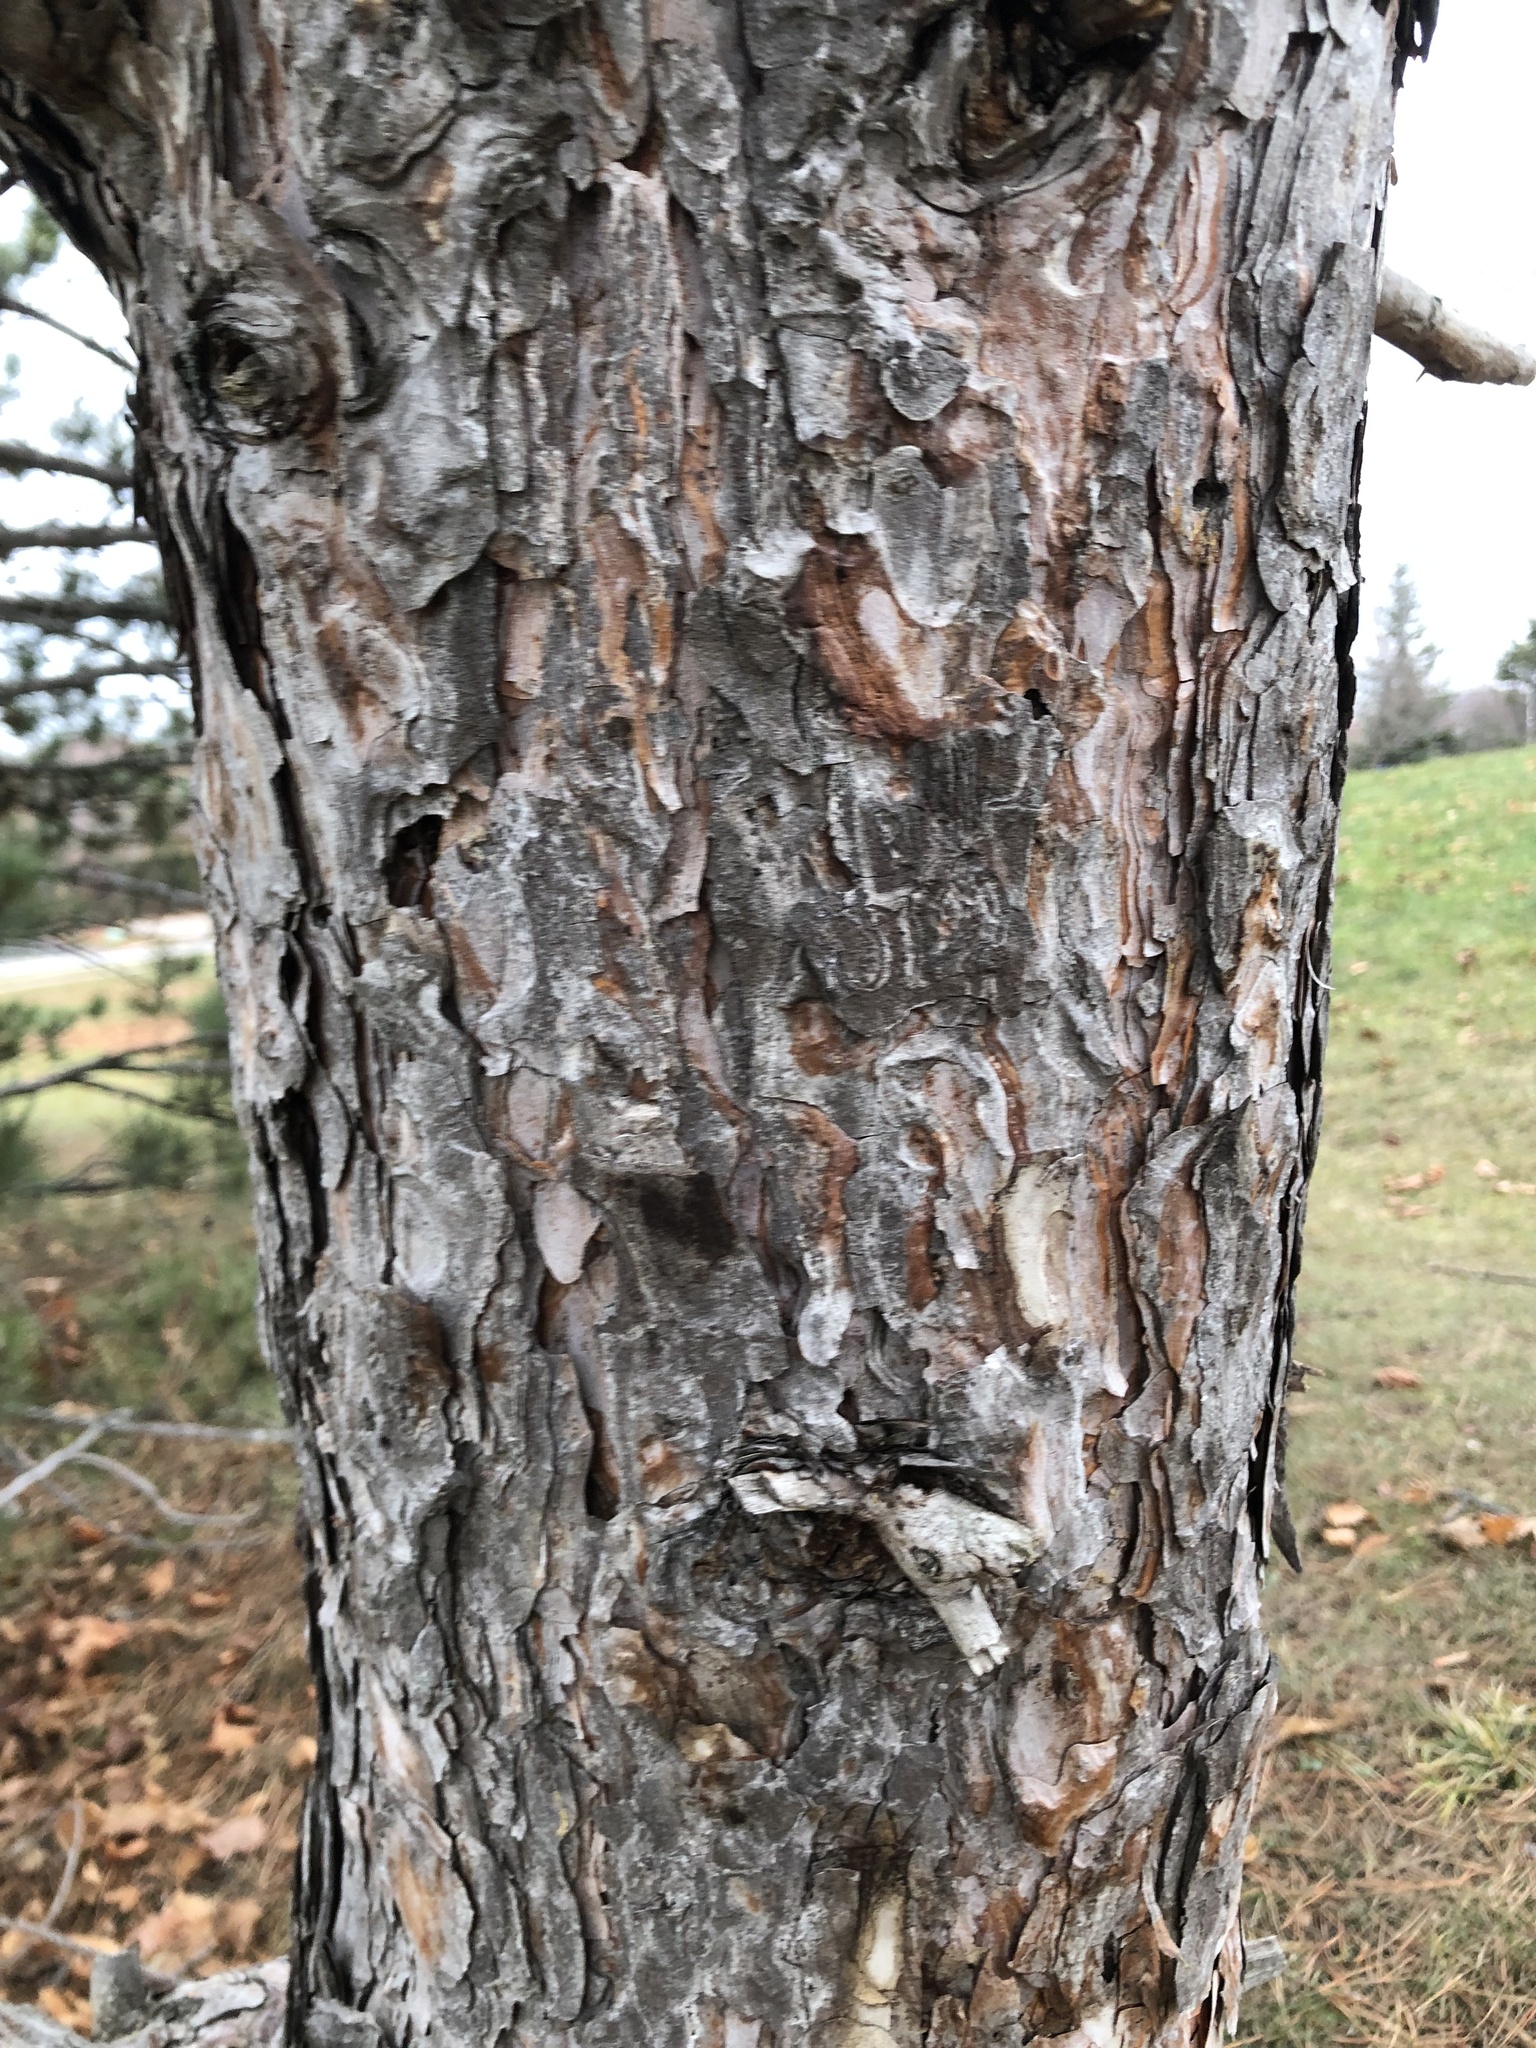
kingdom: Plantae
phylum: Tracheophyta
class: Pinopsida
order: Pinales
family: Pinaceae
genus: Pinus
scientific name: Pinus nigra
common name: Austrian pine
